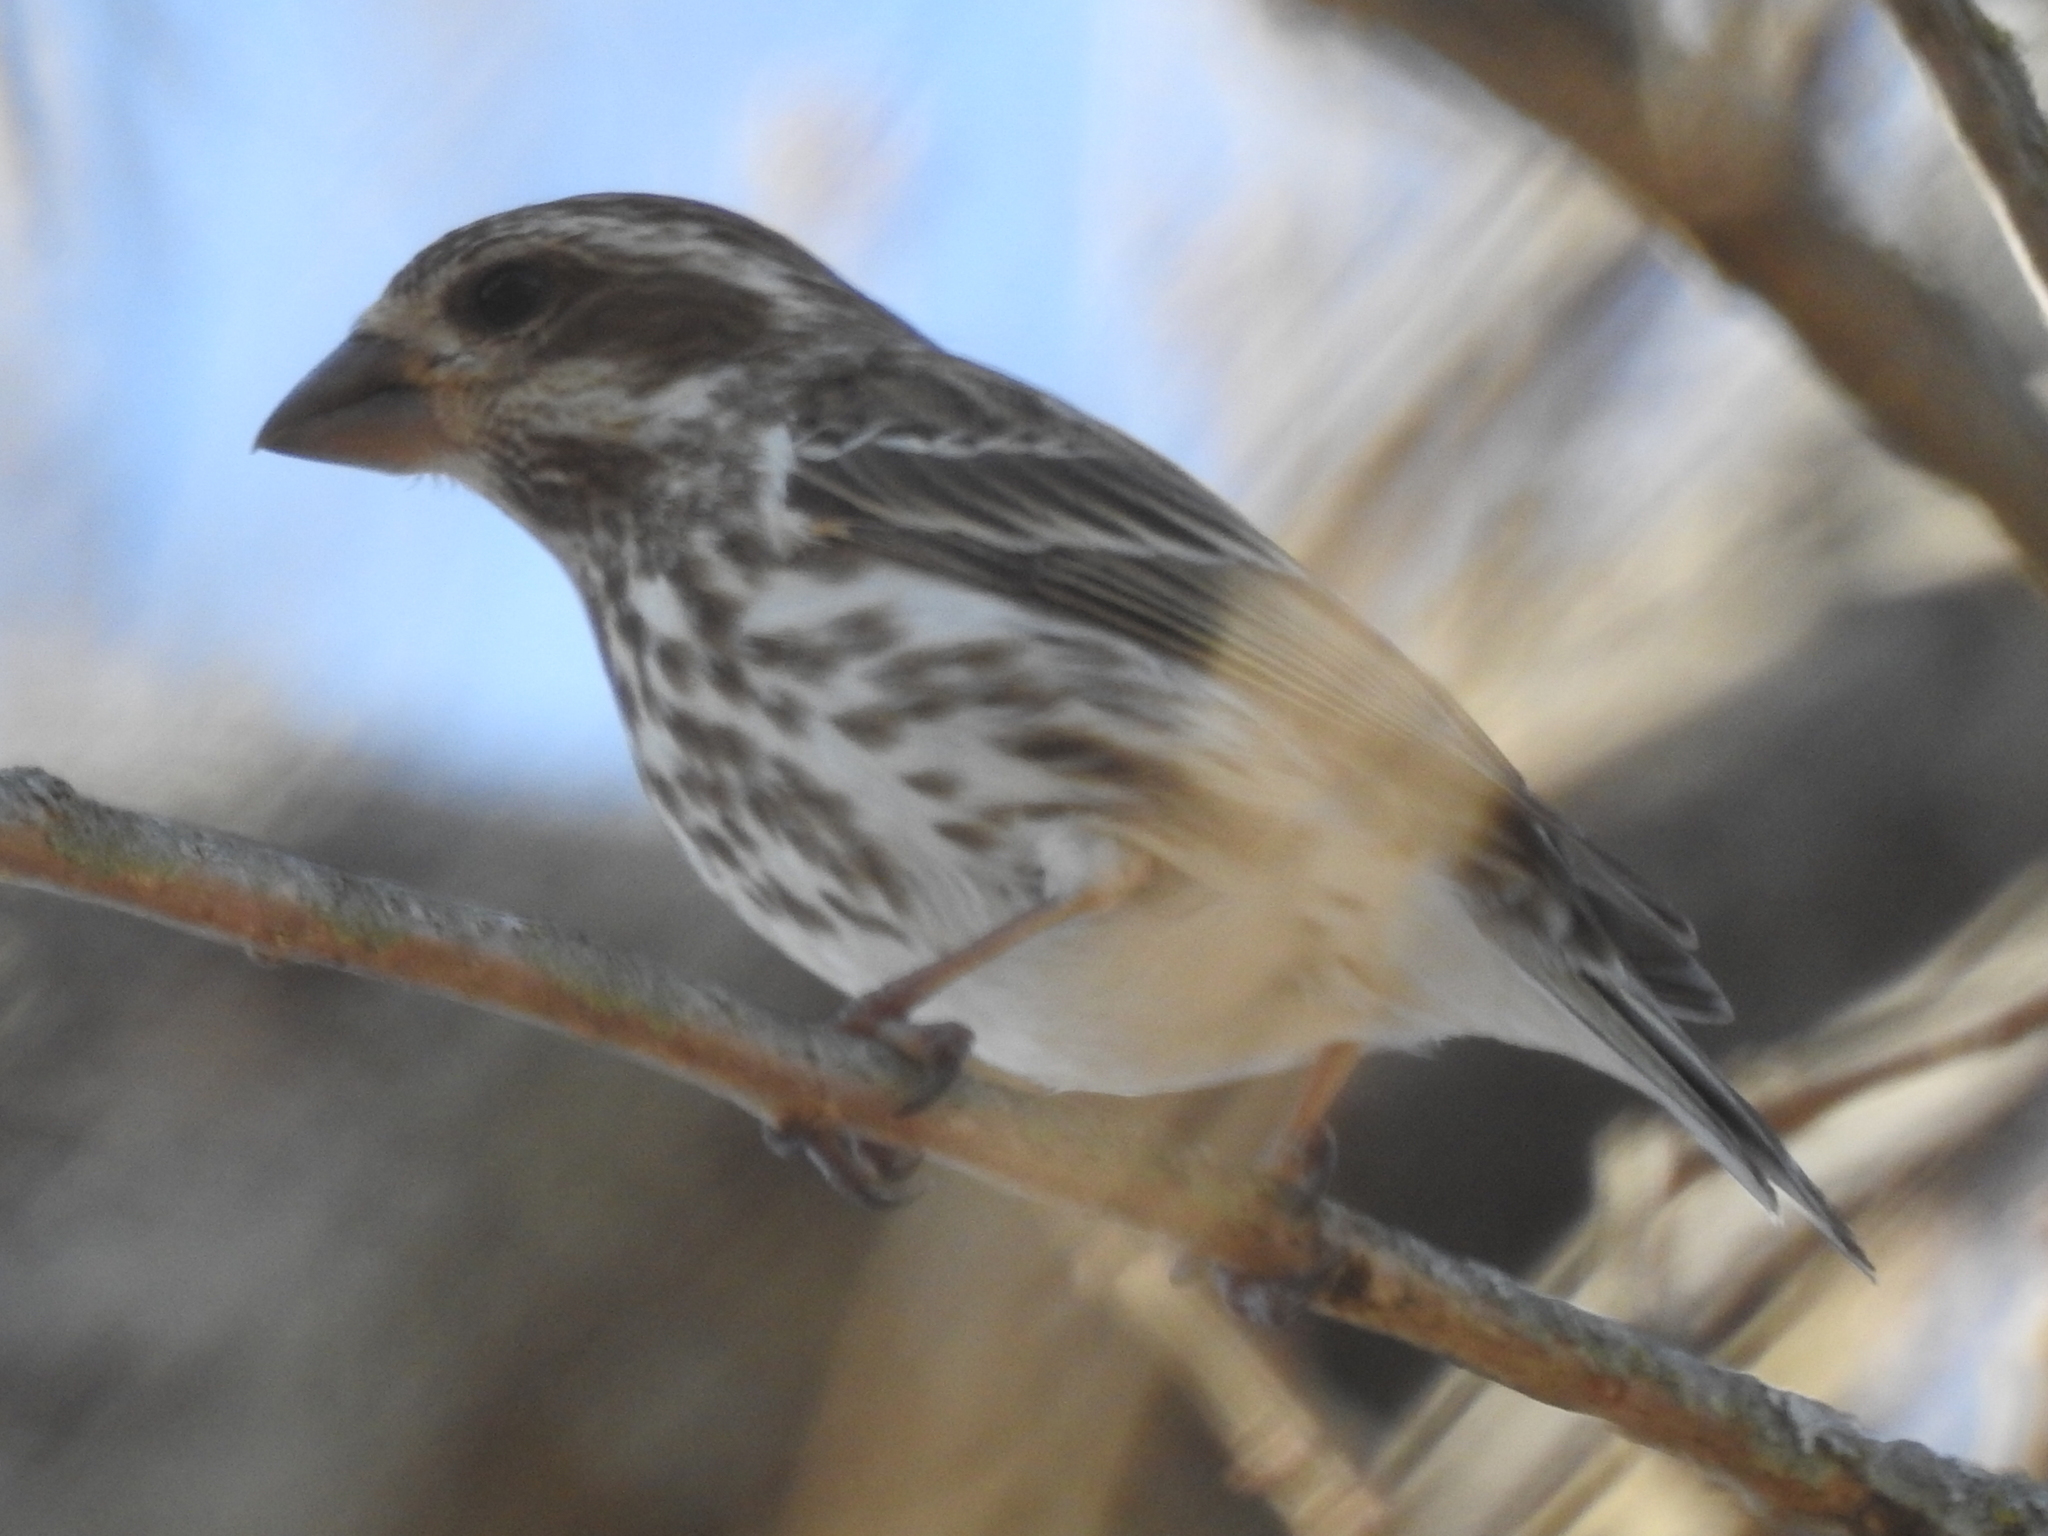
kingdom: Animalia
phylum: Chordata
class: Aves
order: Passeriformes
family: Fringillidae
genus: Haemorhous
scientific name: Haemorhous purpureus
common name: Purple finch
